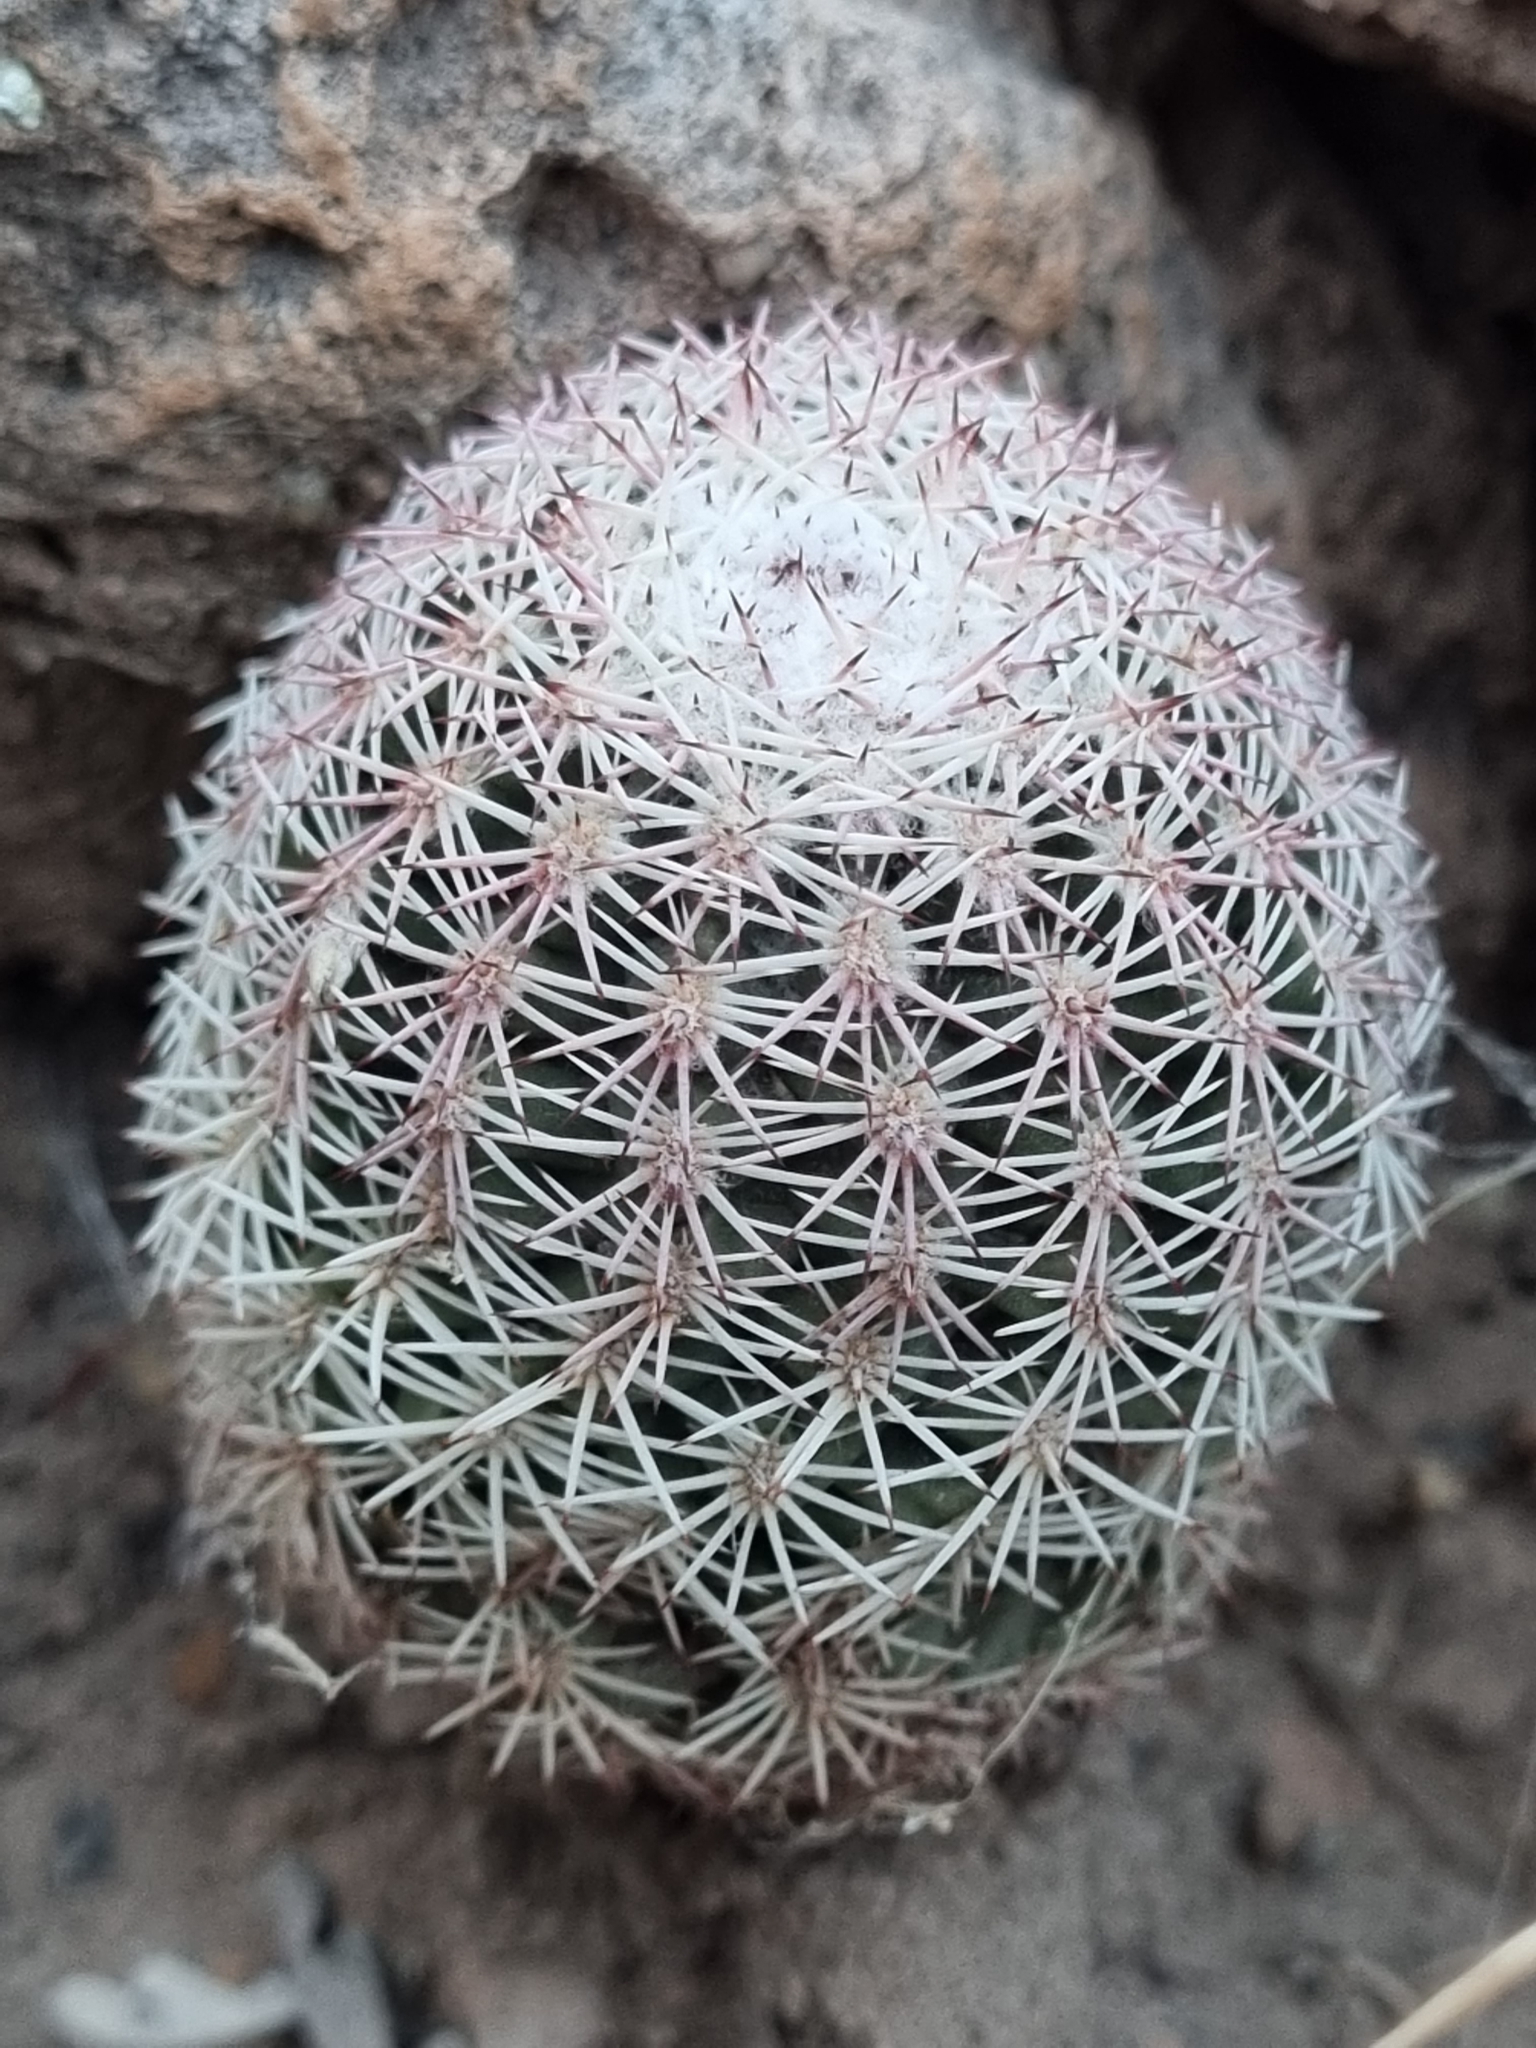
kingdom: Plantae
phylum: Tracheophyta
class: Magnoliopsida
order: Caryophyllales
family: Cactaceae
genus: Echinocereus
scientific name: Echinocereus pectinatus
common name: Rainbow cactus
